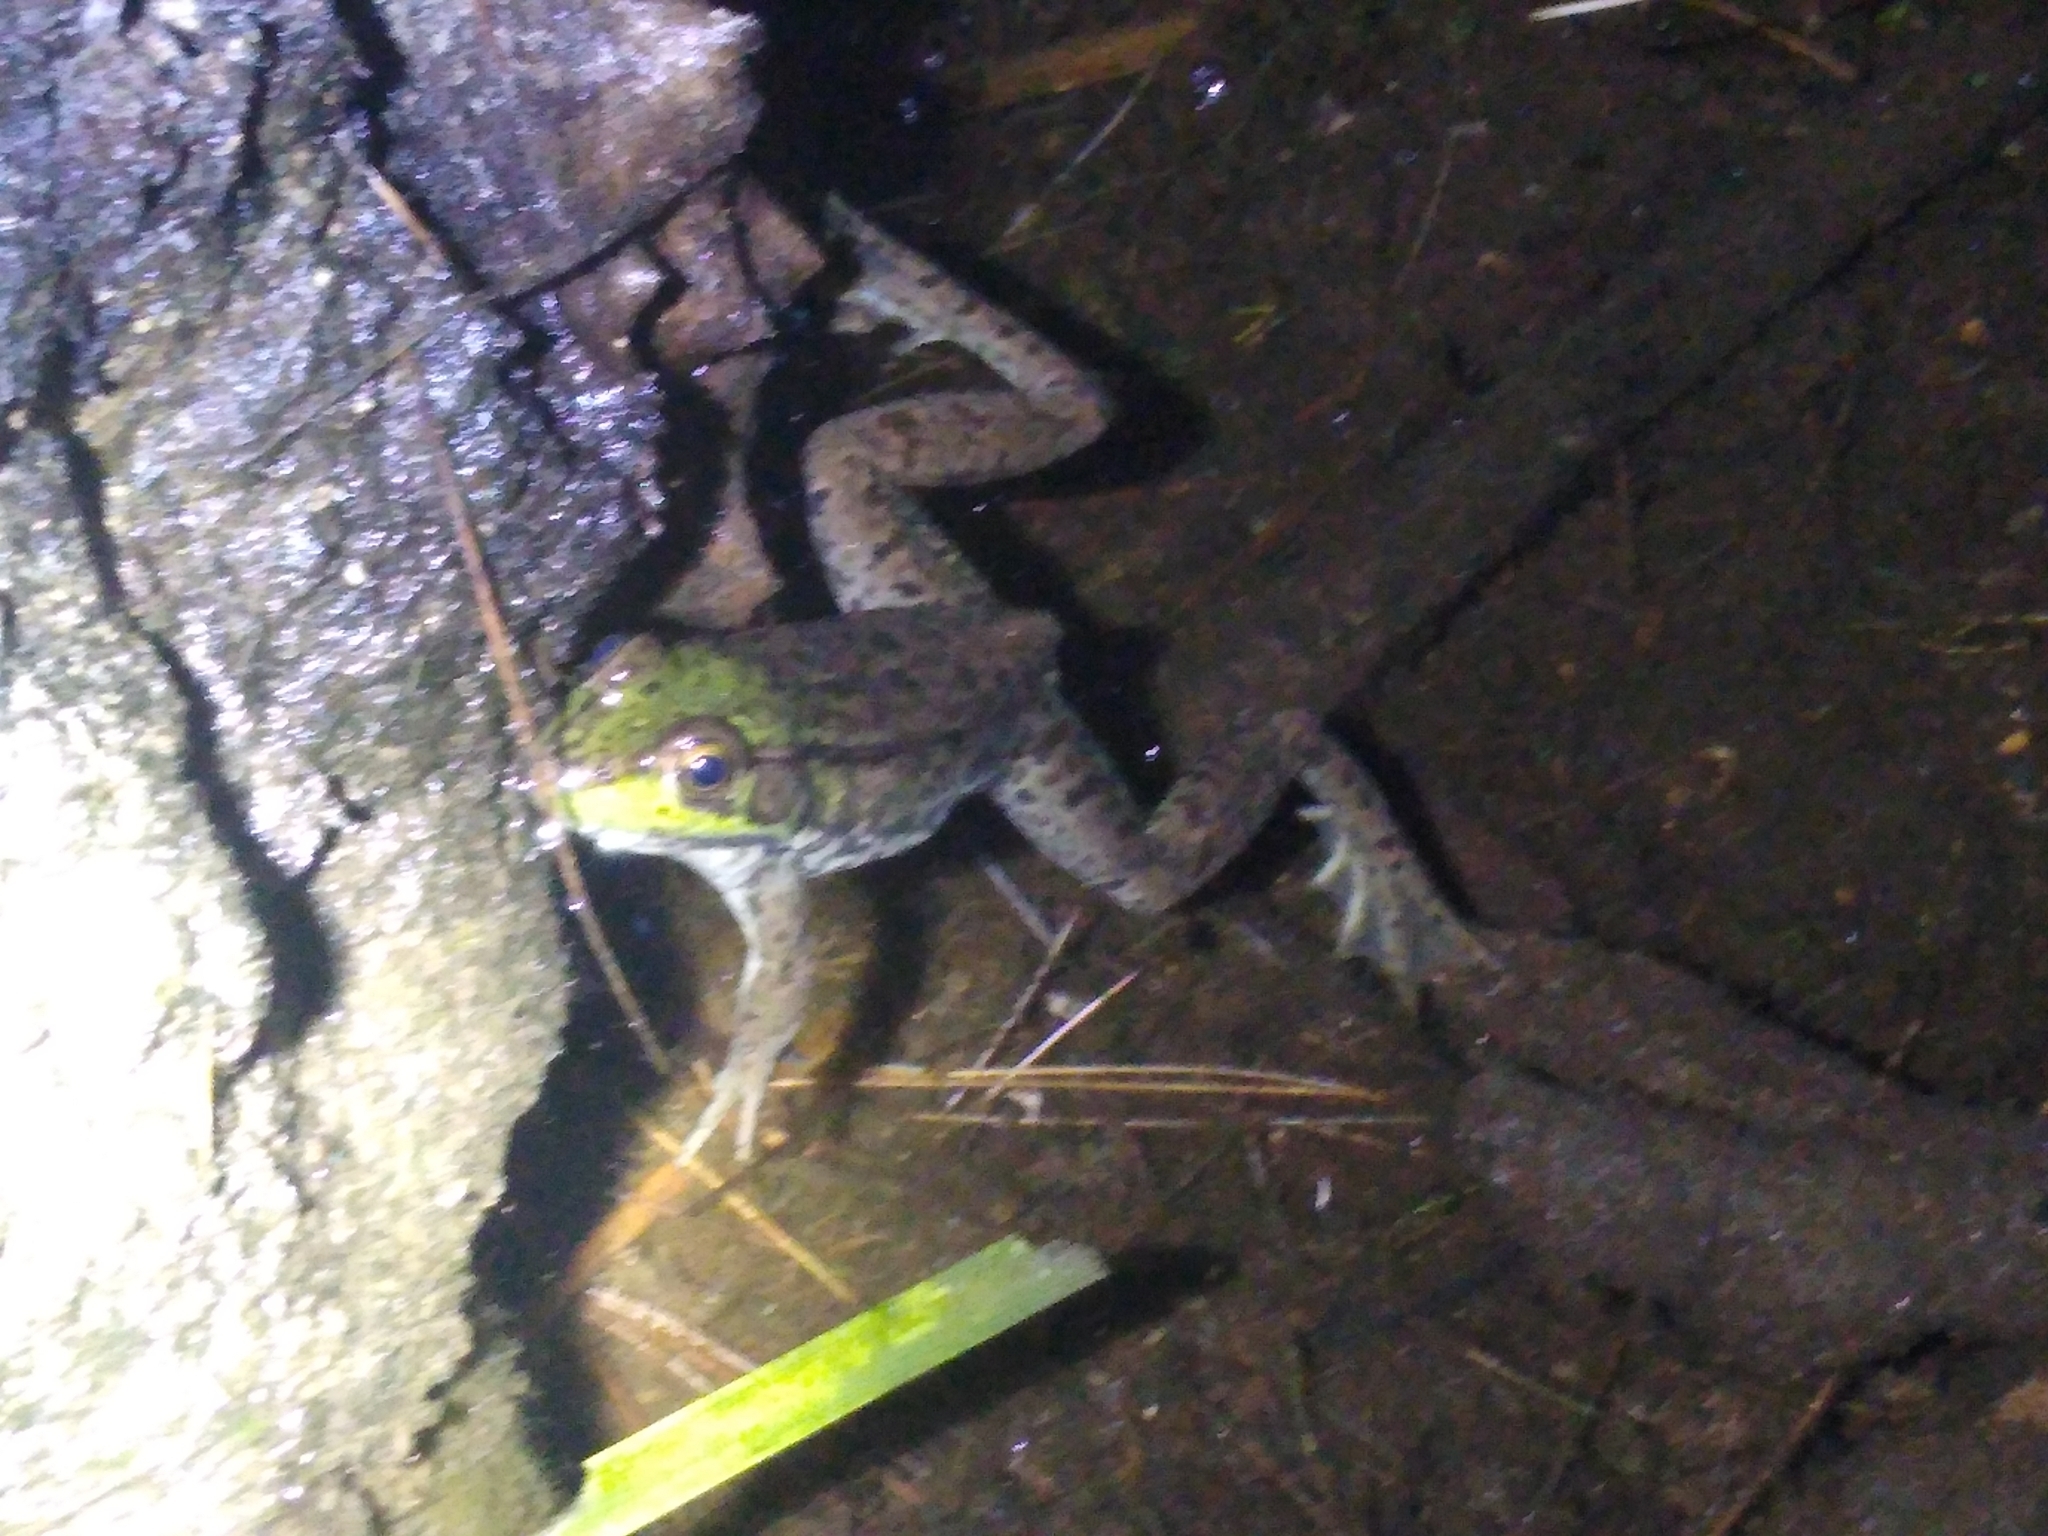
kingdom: Animalia
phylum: Chordata
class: Amphibia
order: Anura
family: Ranidae
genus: Lithobates
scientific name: Lithobates clamitans
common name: Green frog
